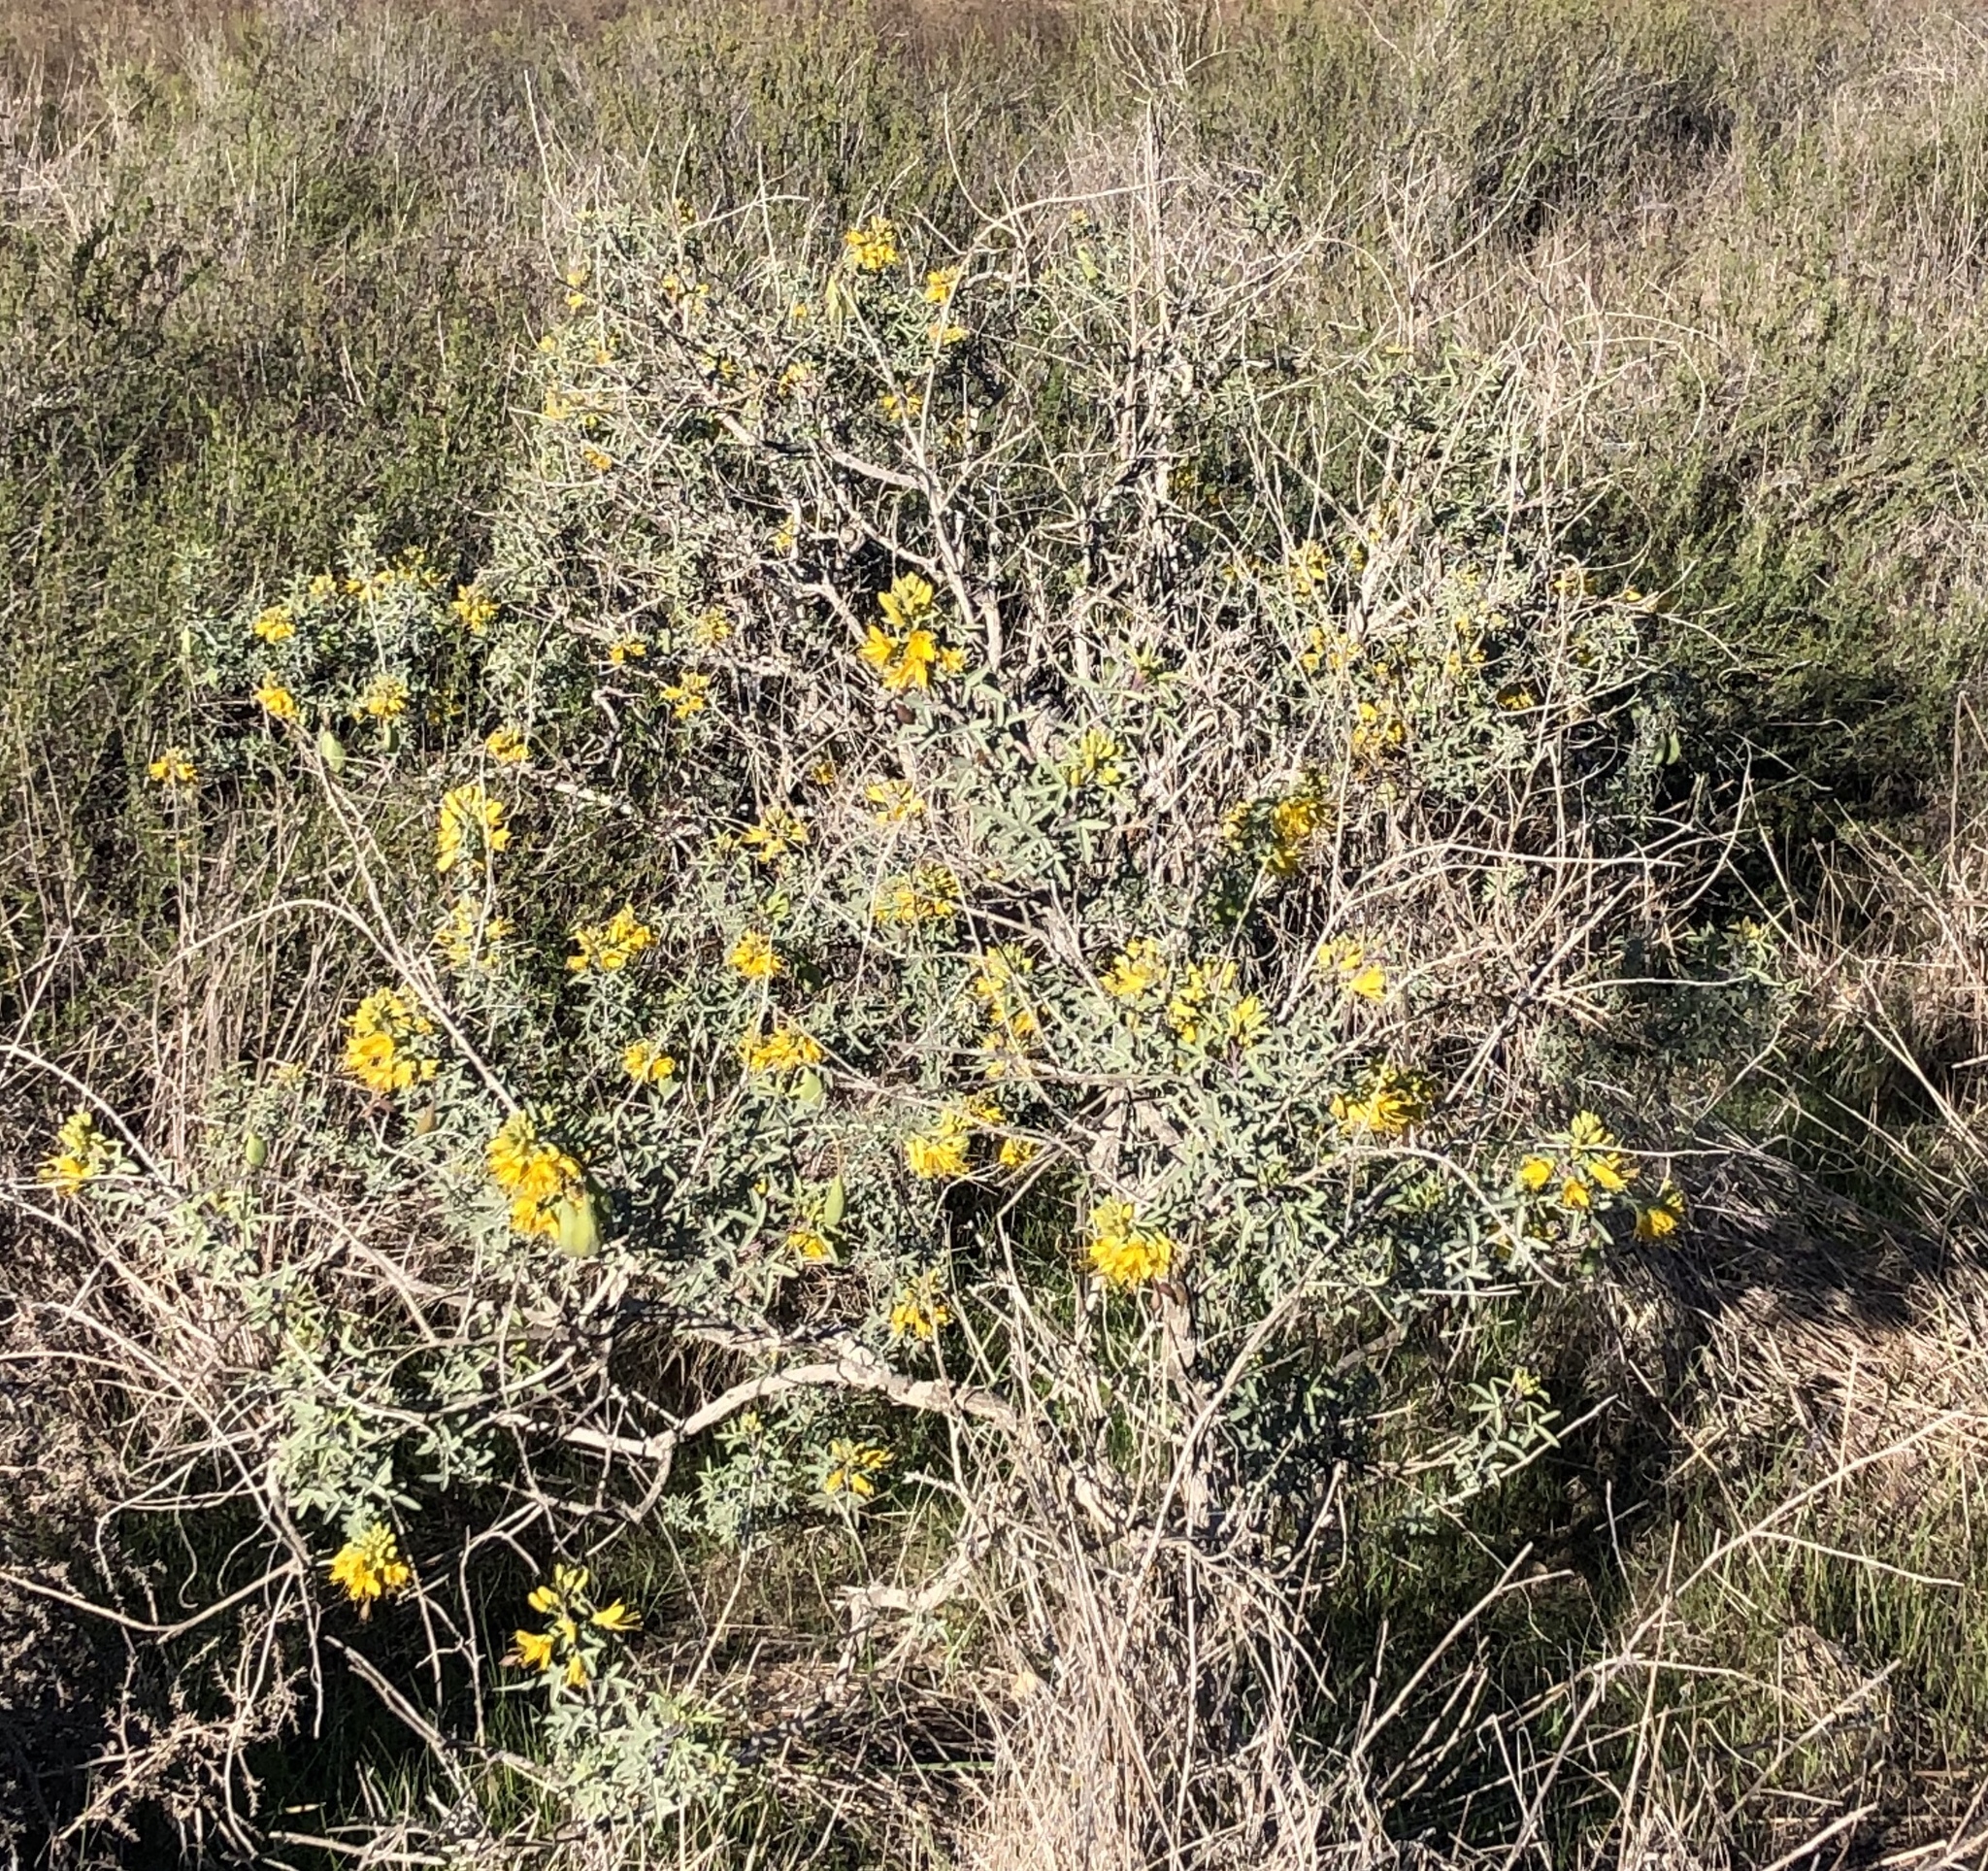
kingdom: Plantae
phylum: Tracheophyta
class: Magnoliopsida
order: Brassicales
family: Cleomaceae
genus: Cleomella
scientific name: Cleomella arborea
